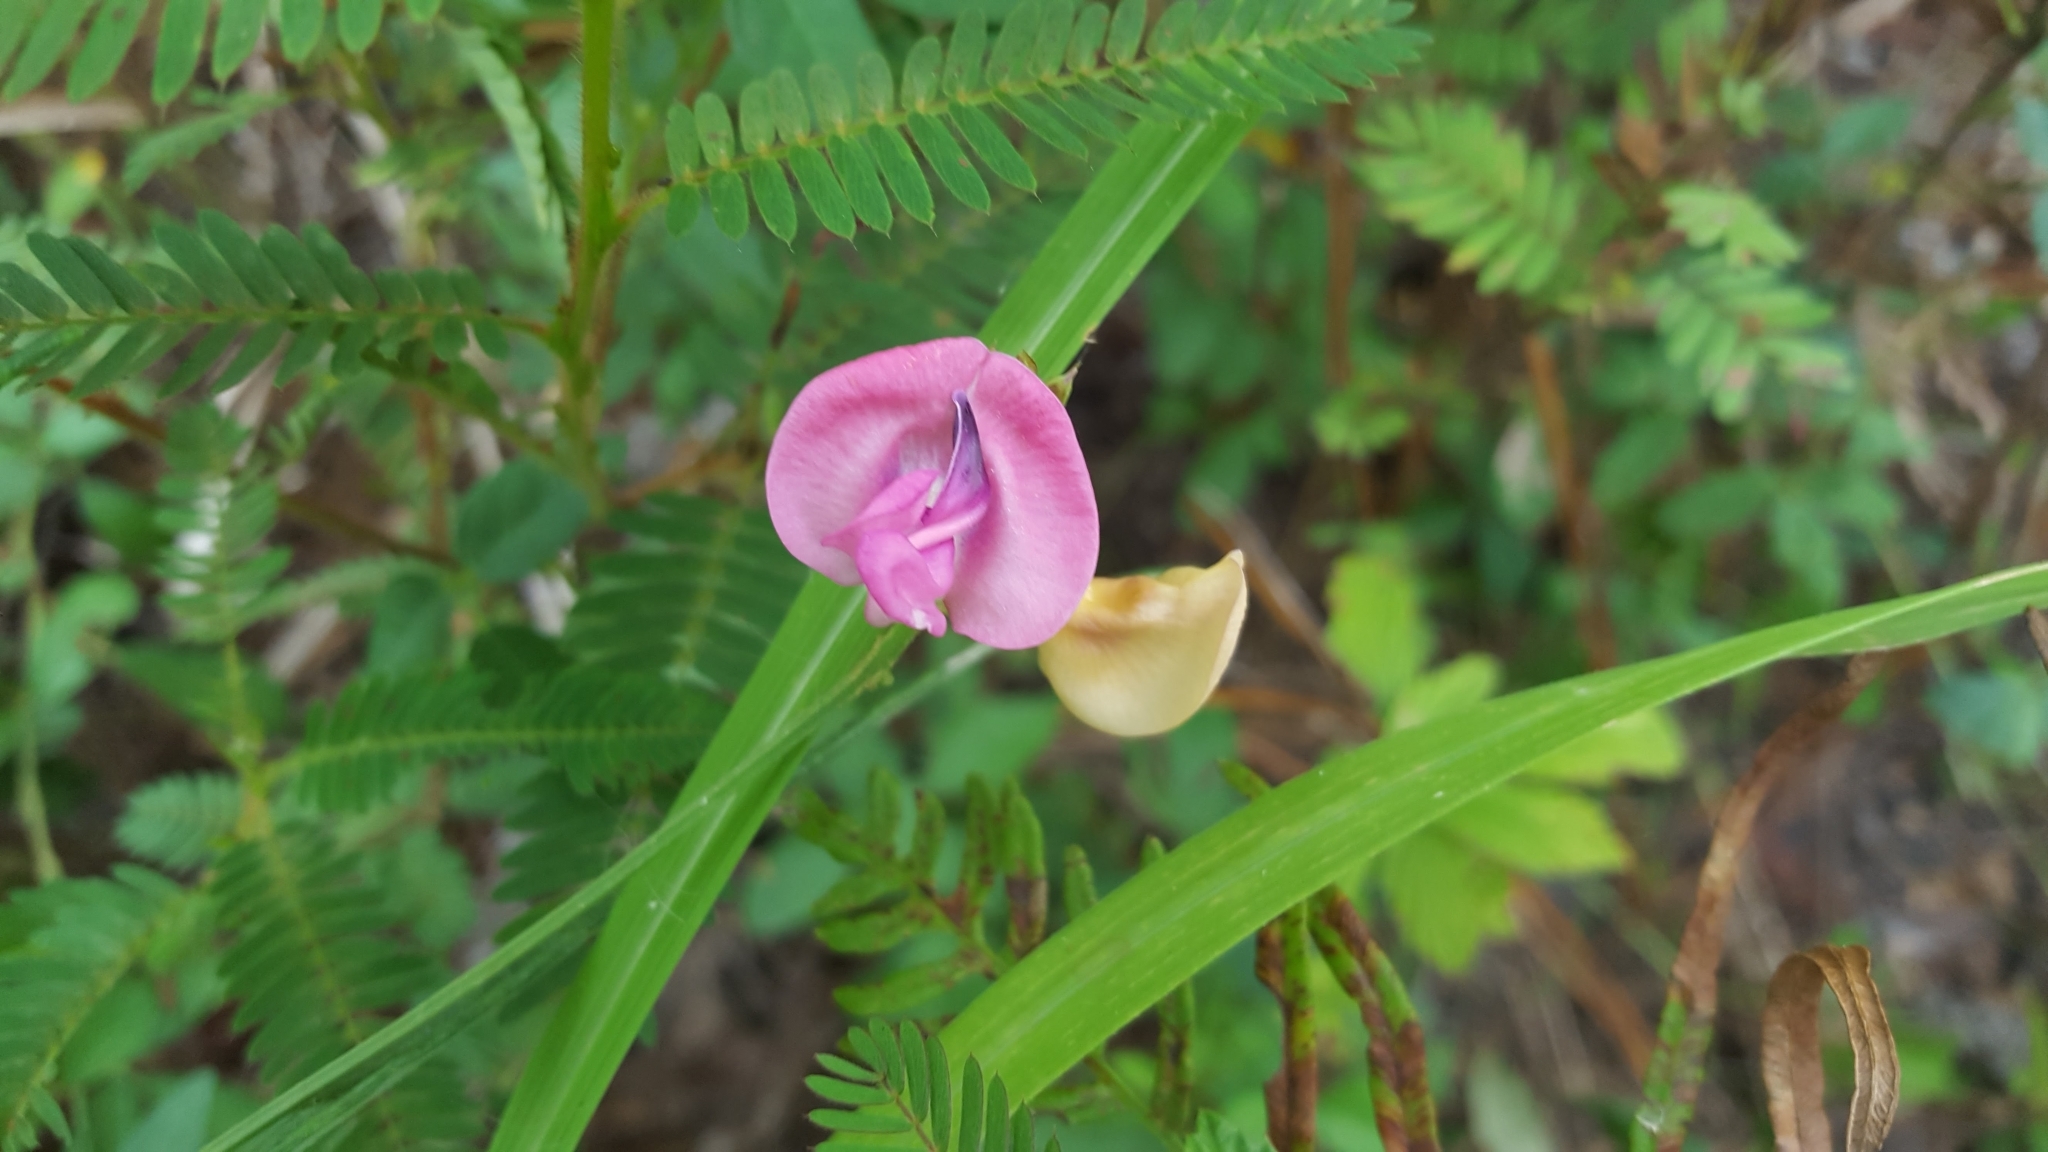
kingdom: Plantae
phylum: Tracheophyta
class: Magnoliopsida
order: Fabales
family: Fabaceae
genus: Strophostyles
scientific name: Strophostyles umbellata
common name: Perennial wild bean
